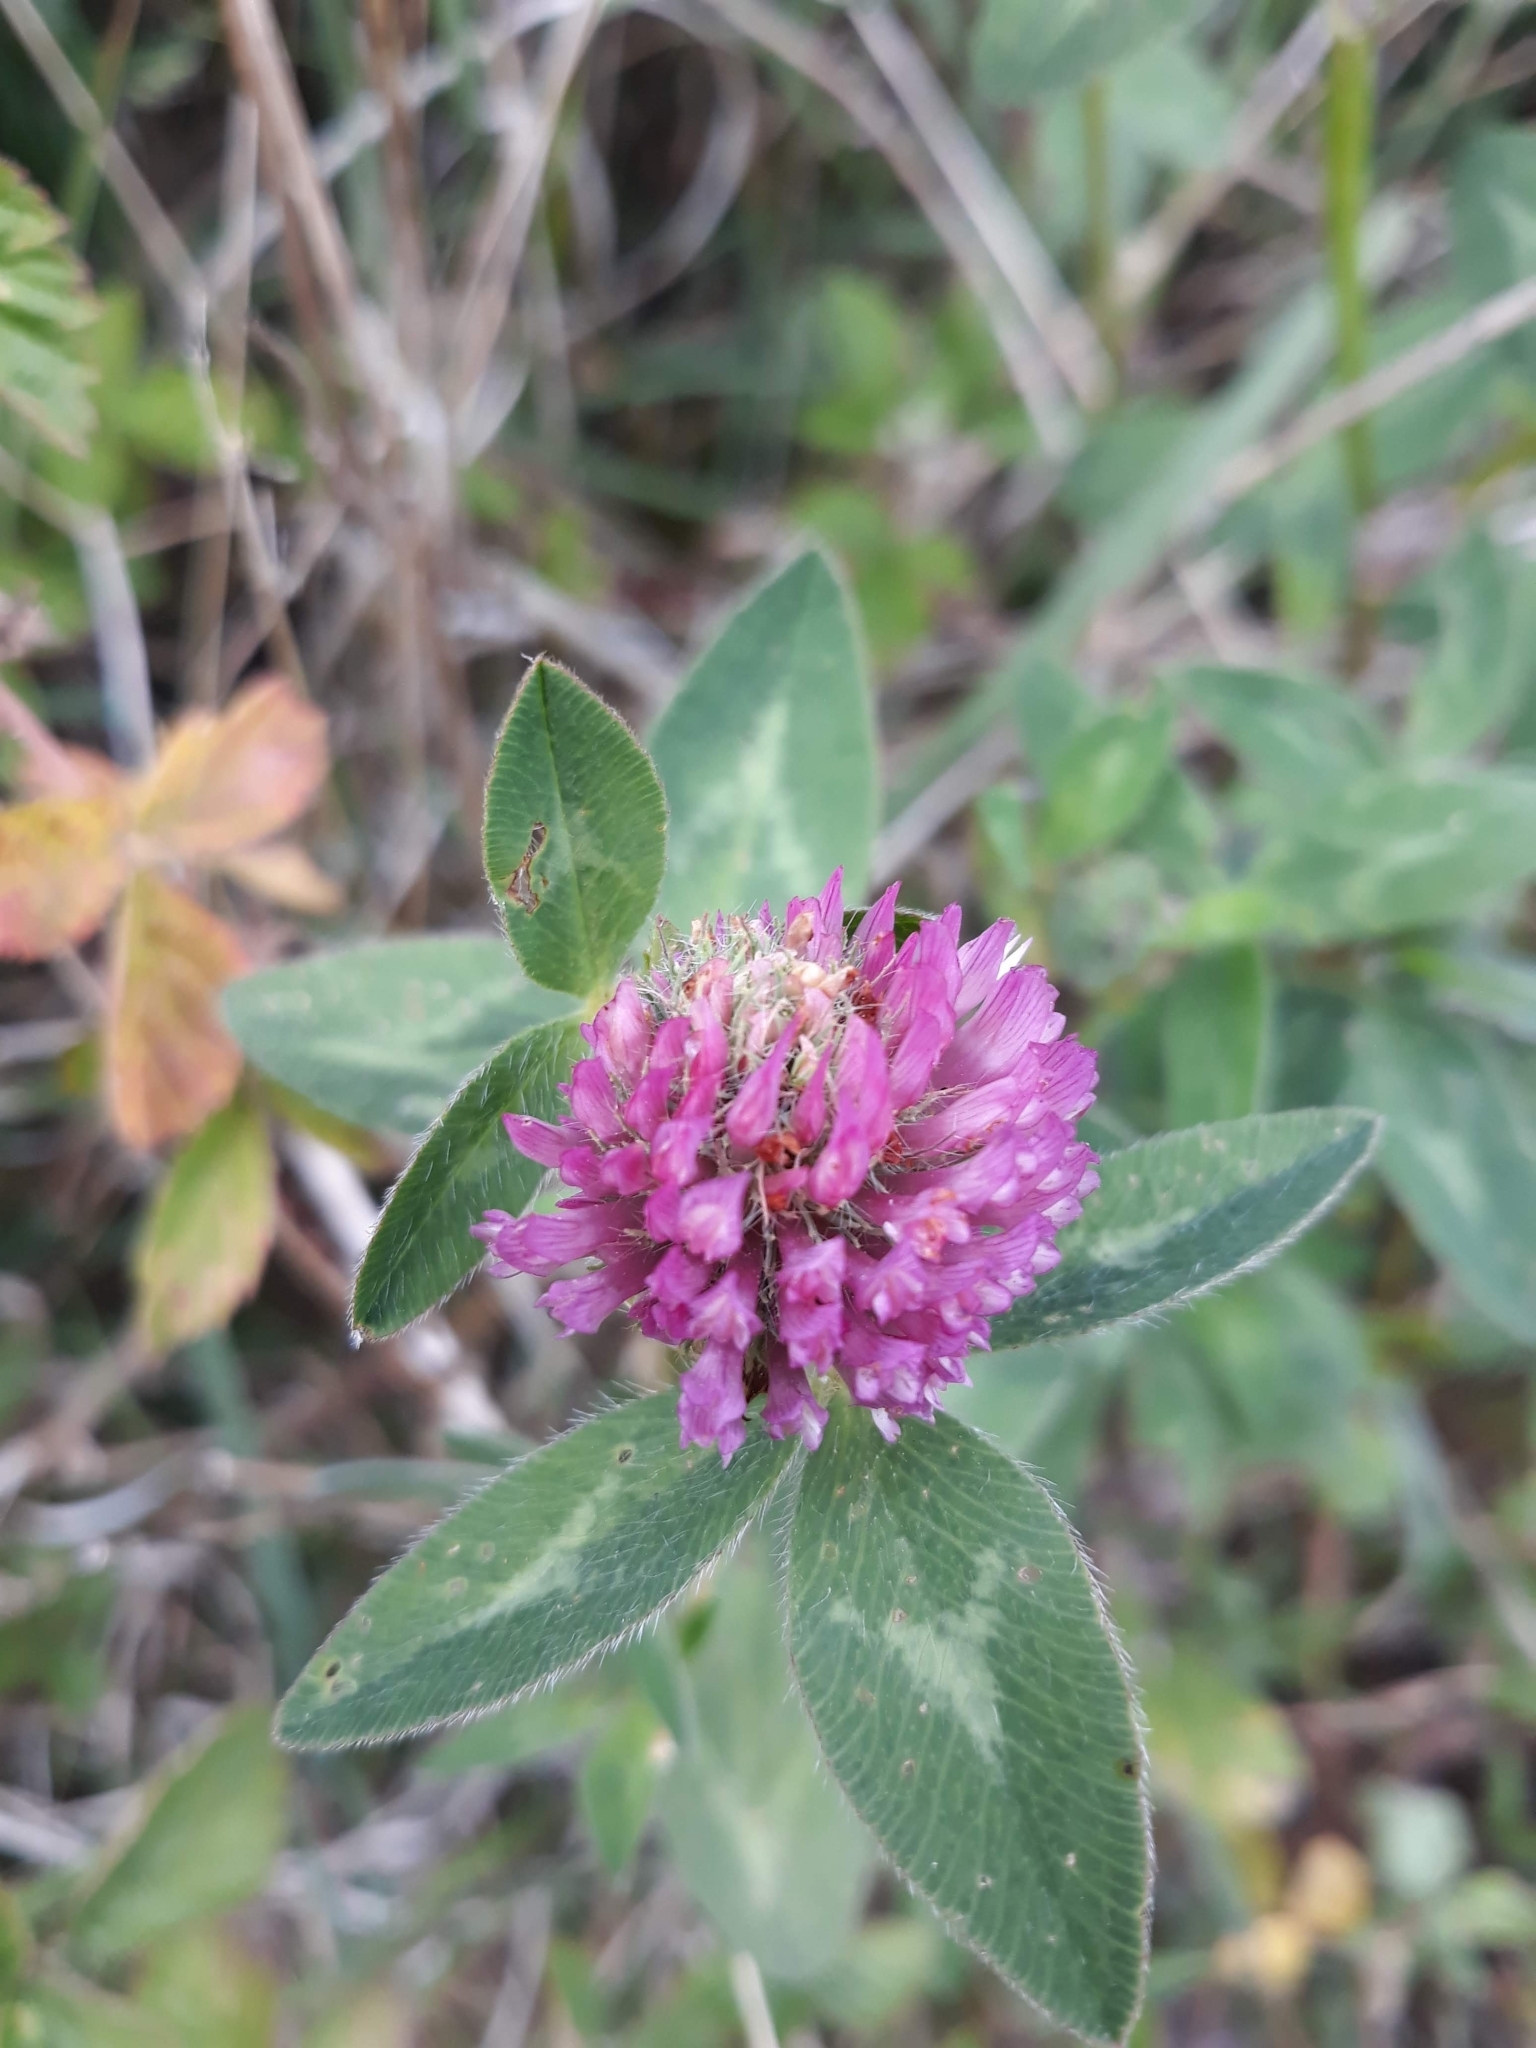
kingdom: Plantae
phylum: Tracheophyta
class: Magnoliopsida
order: Fabales
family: Fabaceae
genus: Trifolium
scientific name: Trifolium pratense
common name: Red clover
